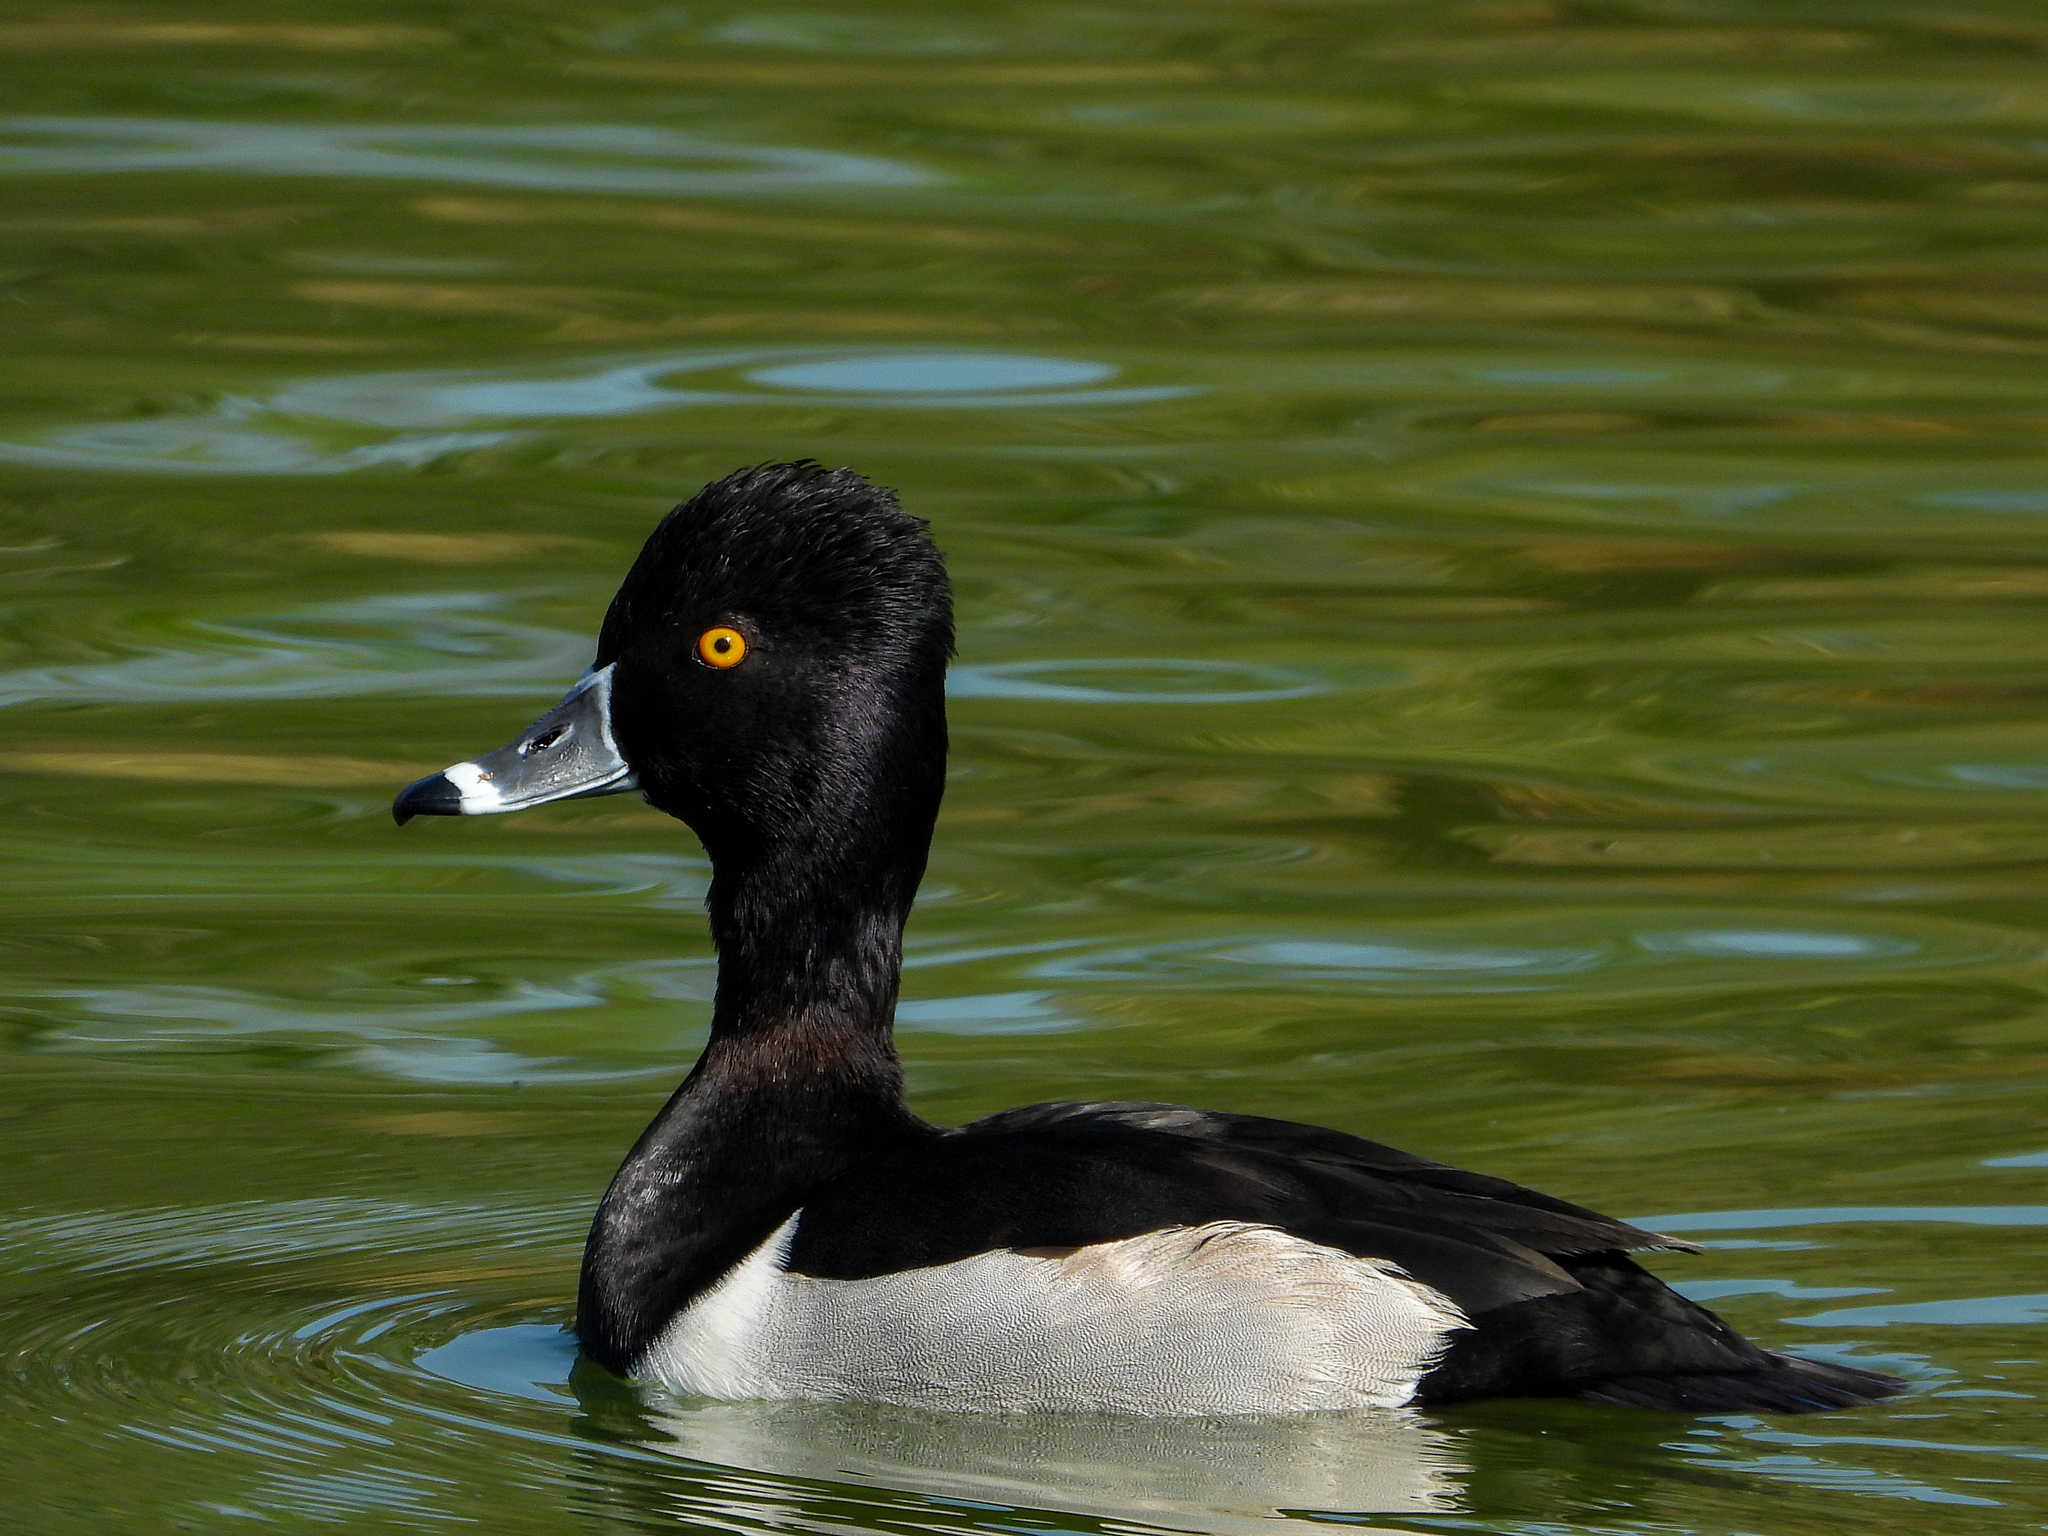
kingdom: Animalia
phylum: Chordata
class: Aves
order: Anseriformes
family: Anatidae
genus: Aythya
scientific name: Aythya collaris
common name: Ring-necked duck
